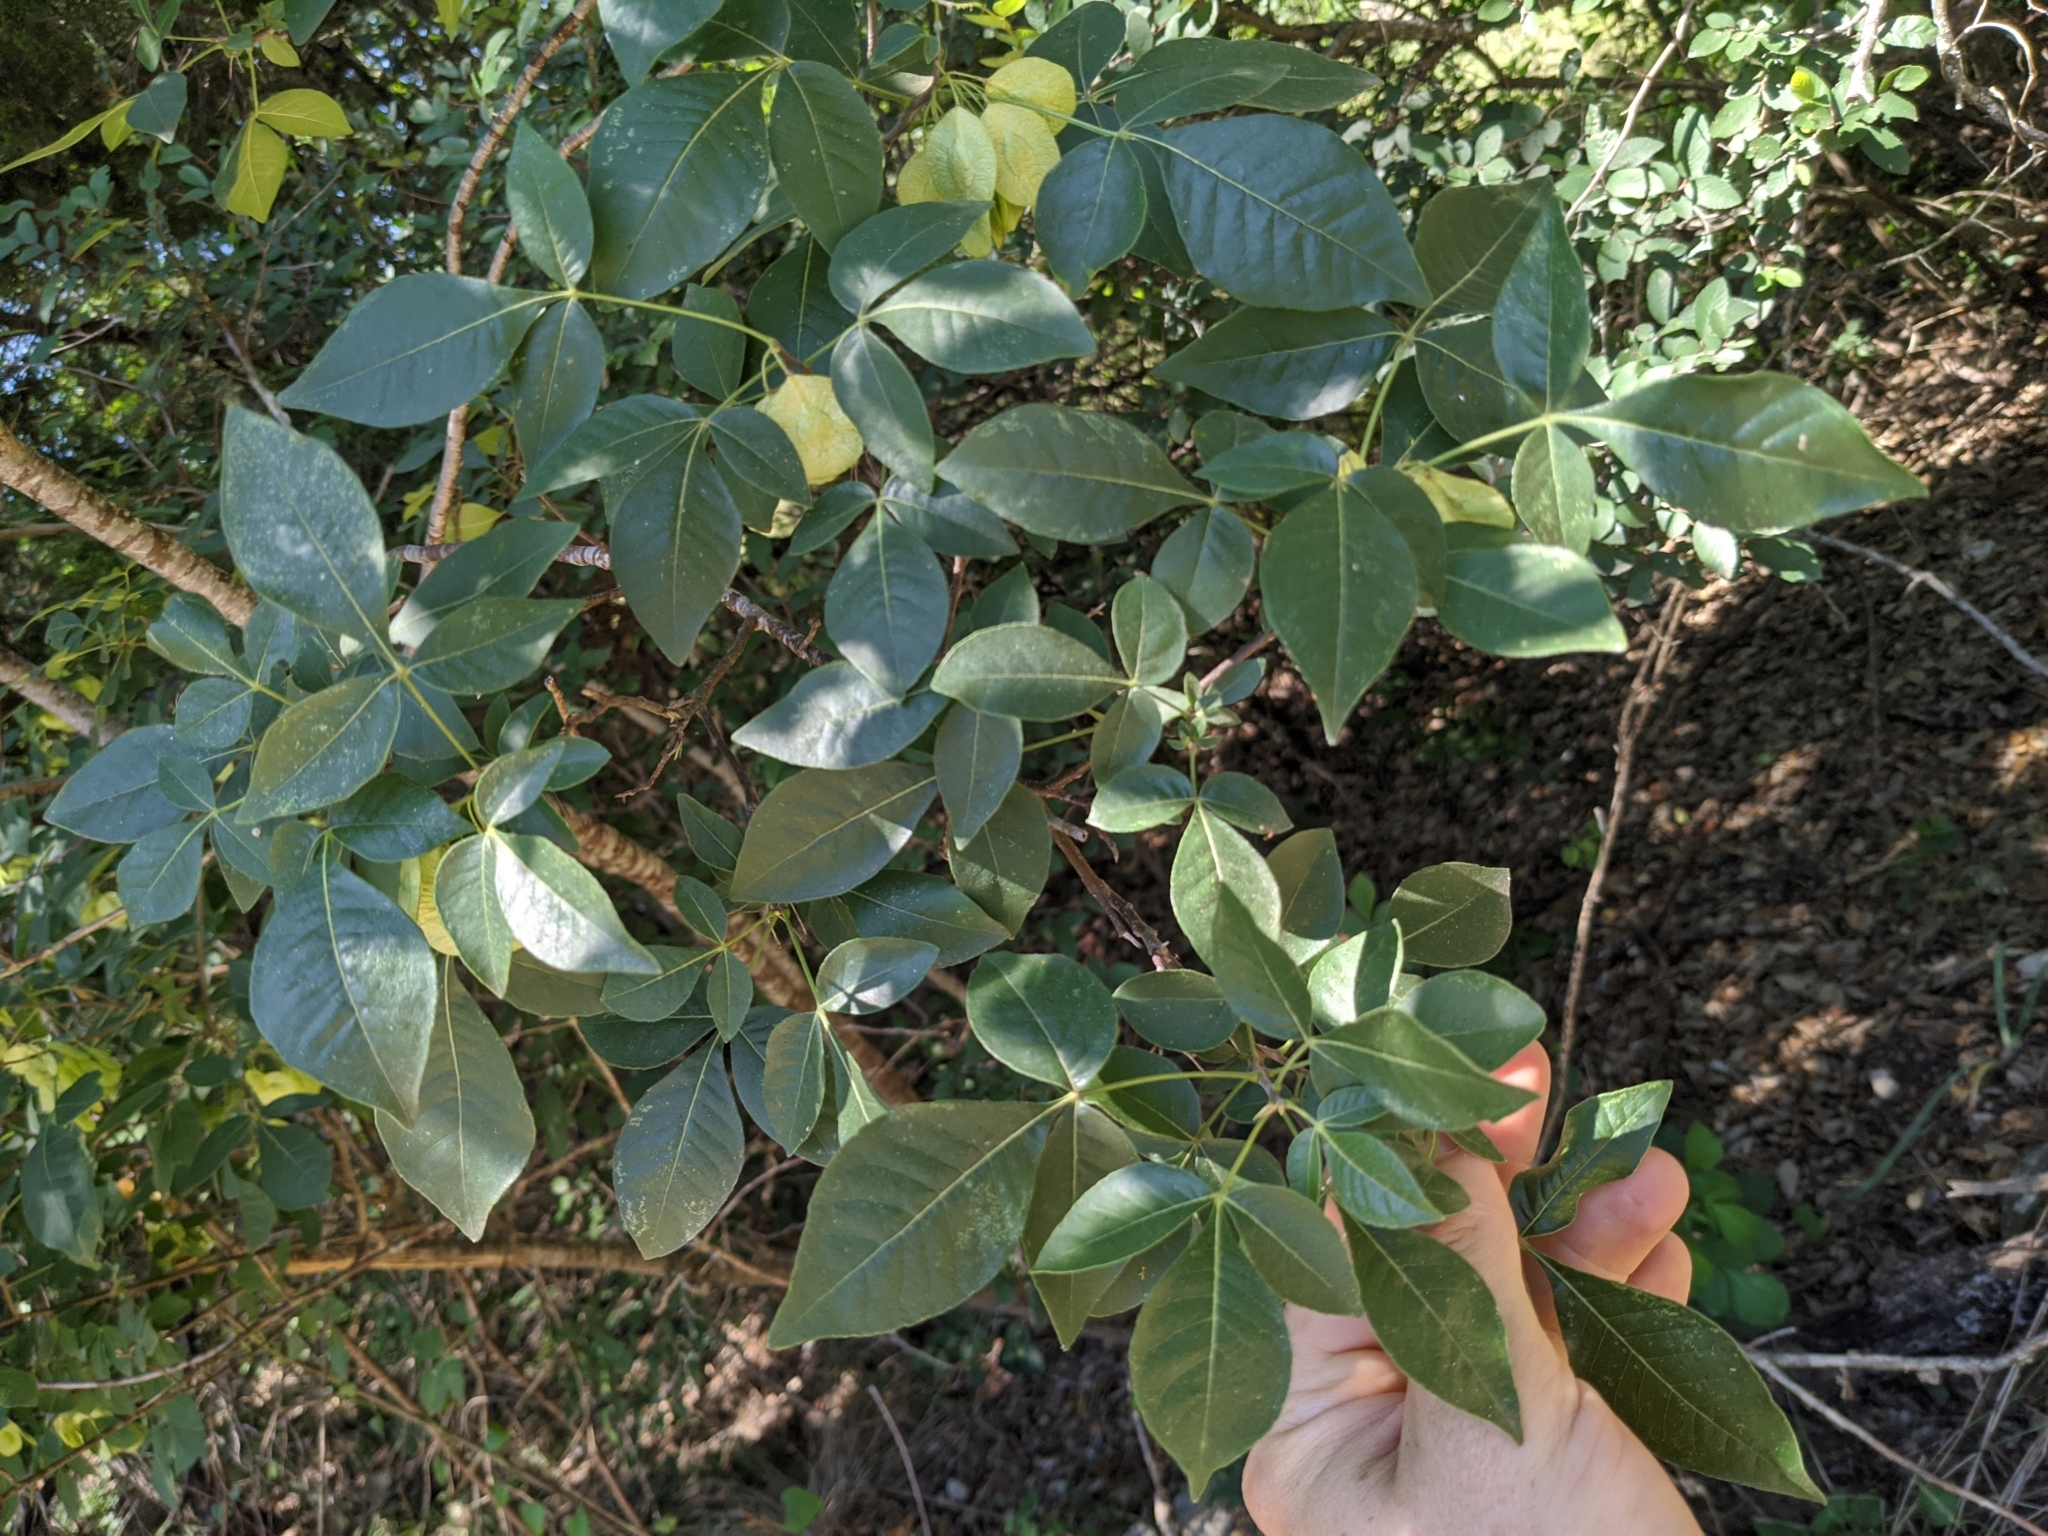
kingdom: Plantae
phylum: Tracheophyta
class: Magnoliopsida
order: Sapindales
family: Rutaceae
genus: Ptelea
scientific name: Ptelea trifoliata
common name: Common hop-tree
